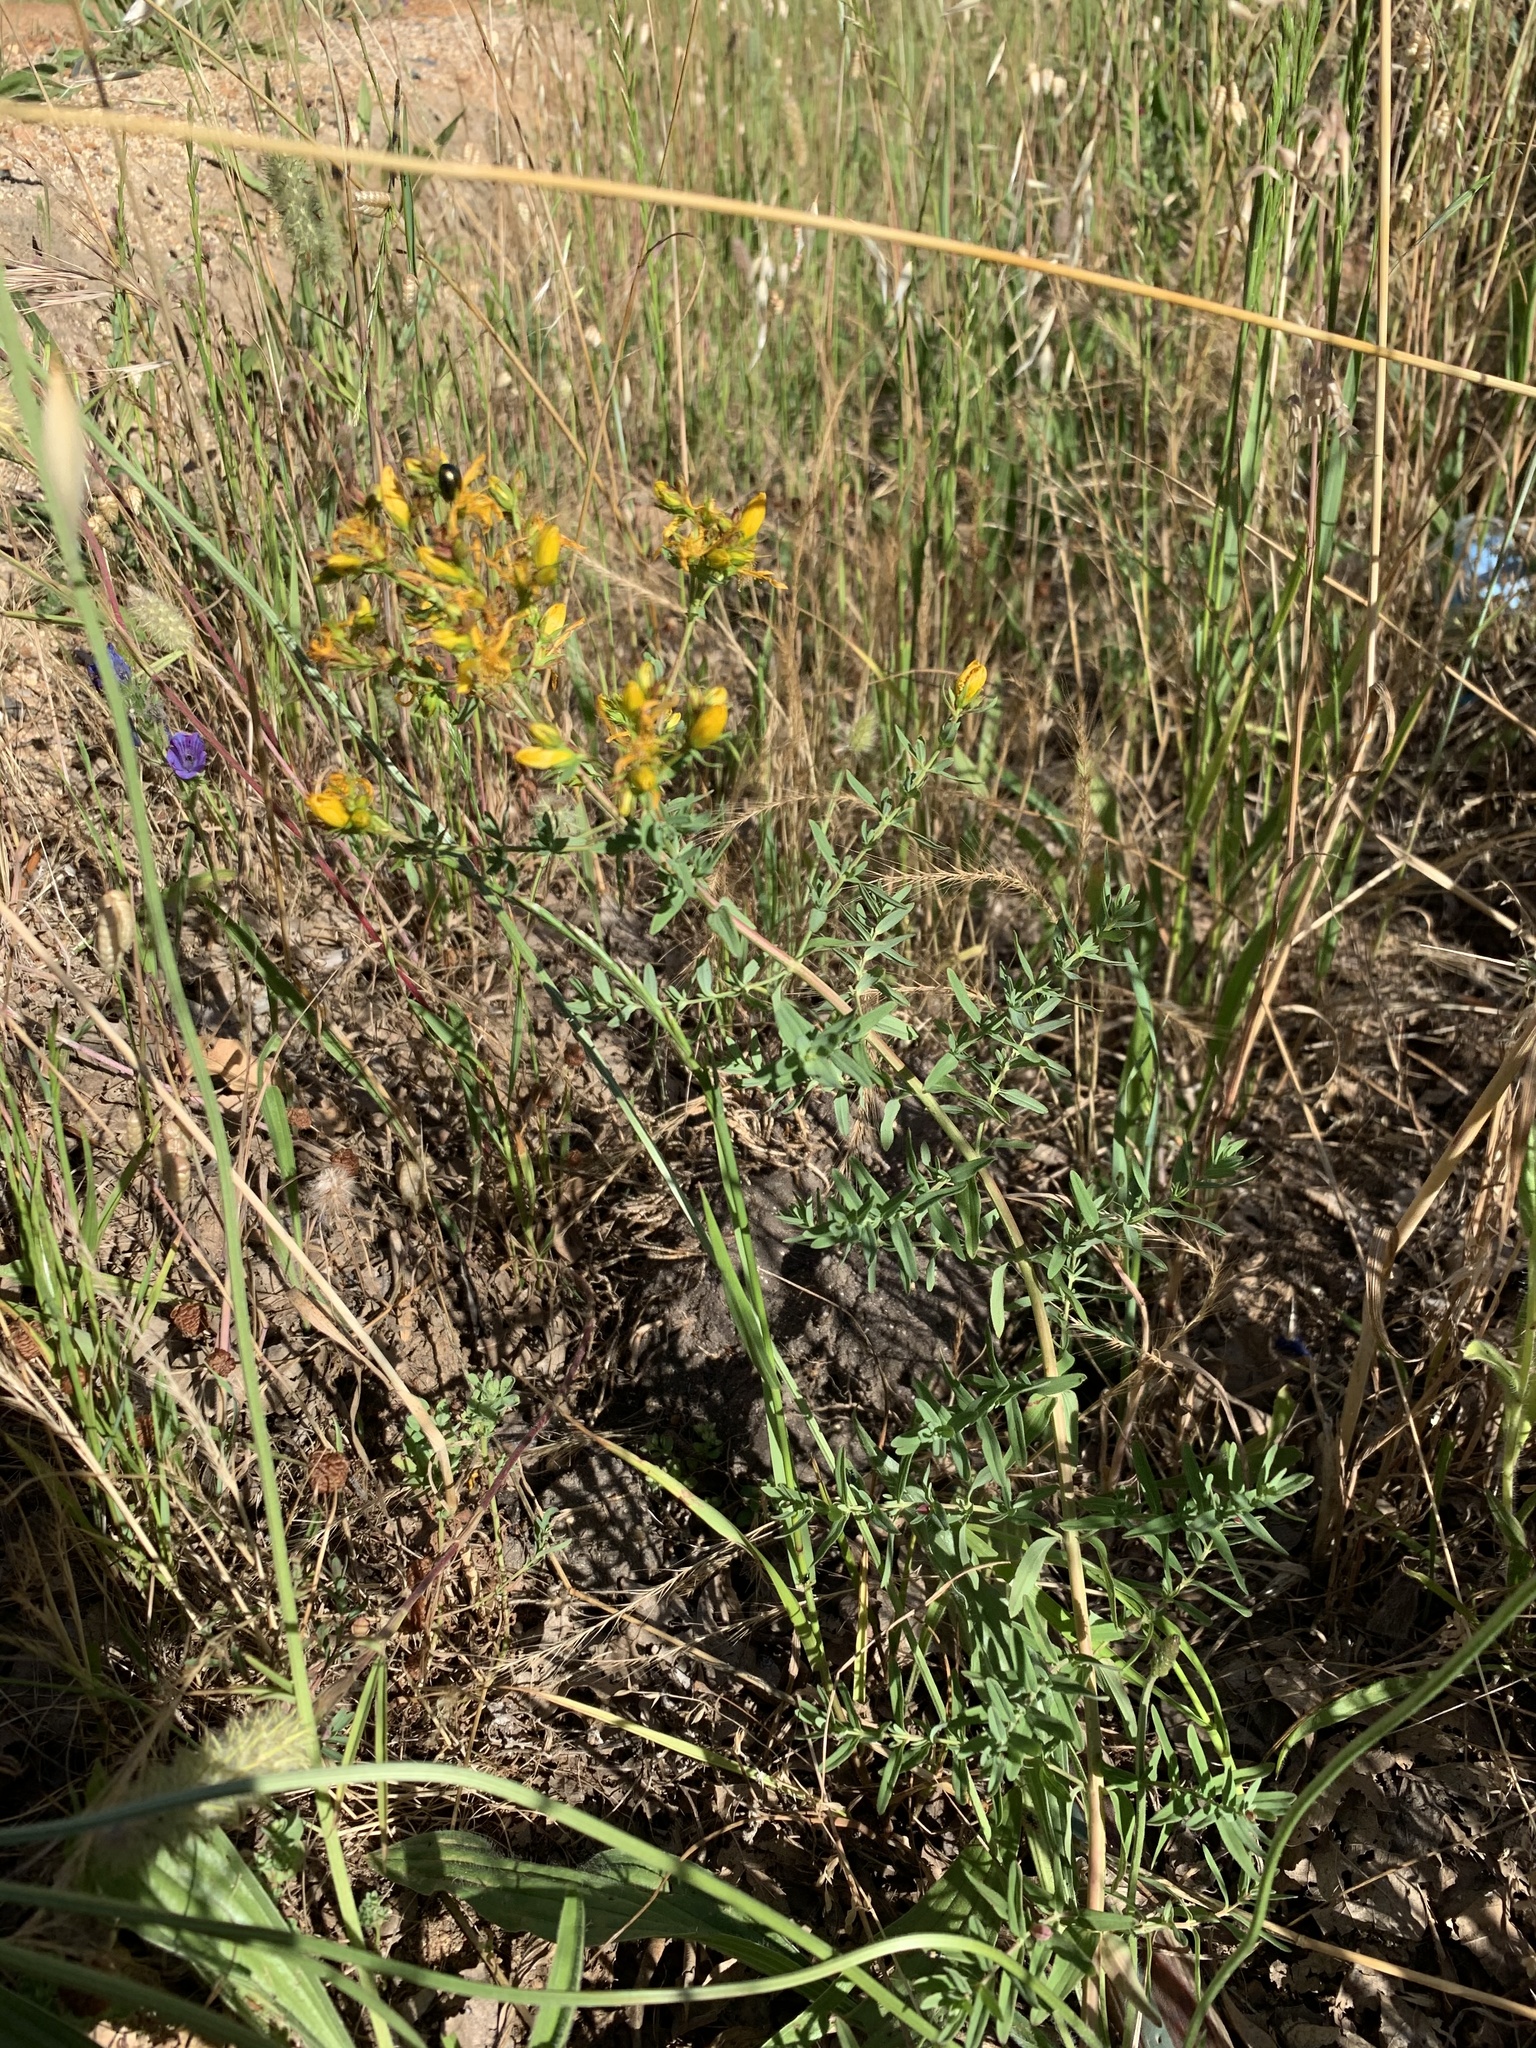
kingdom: Plantae
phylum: Tracheophyta
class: Magnoliopsida
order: Malpighiales
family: Hypericaceae
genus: Hypericum
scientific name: Hypericum perforatum
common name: Common st. johnswort
